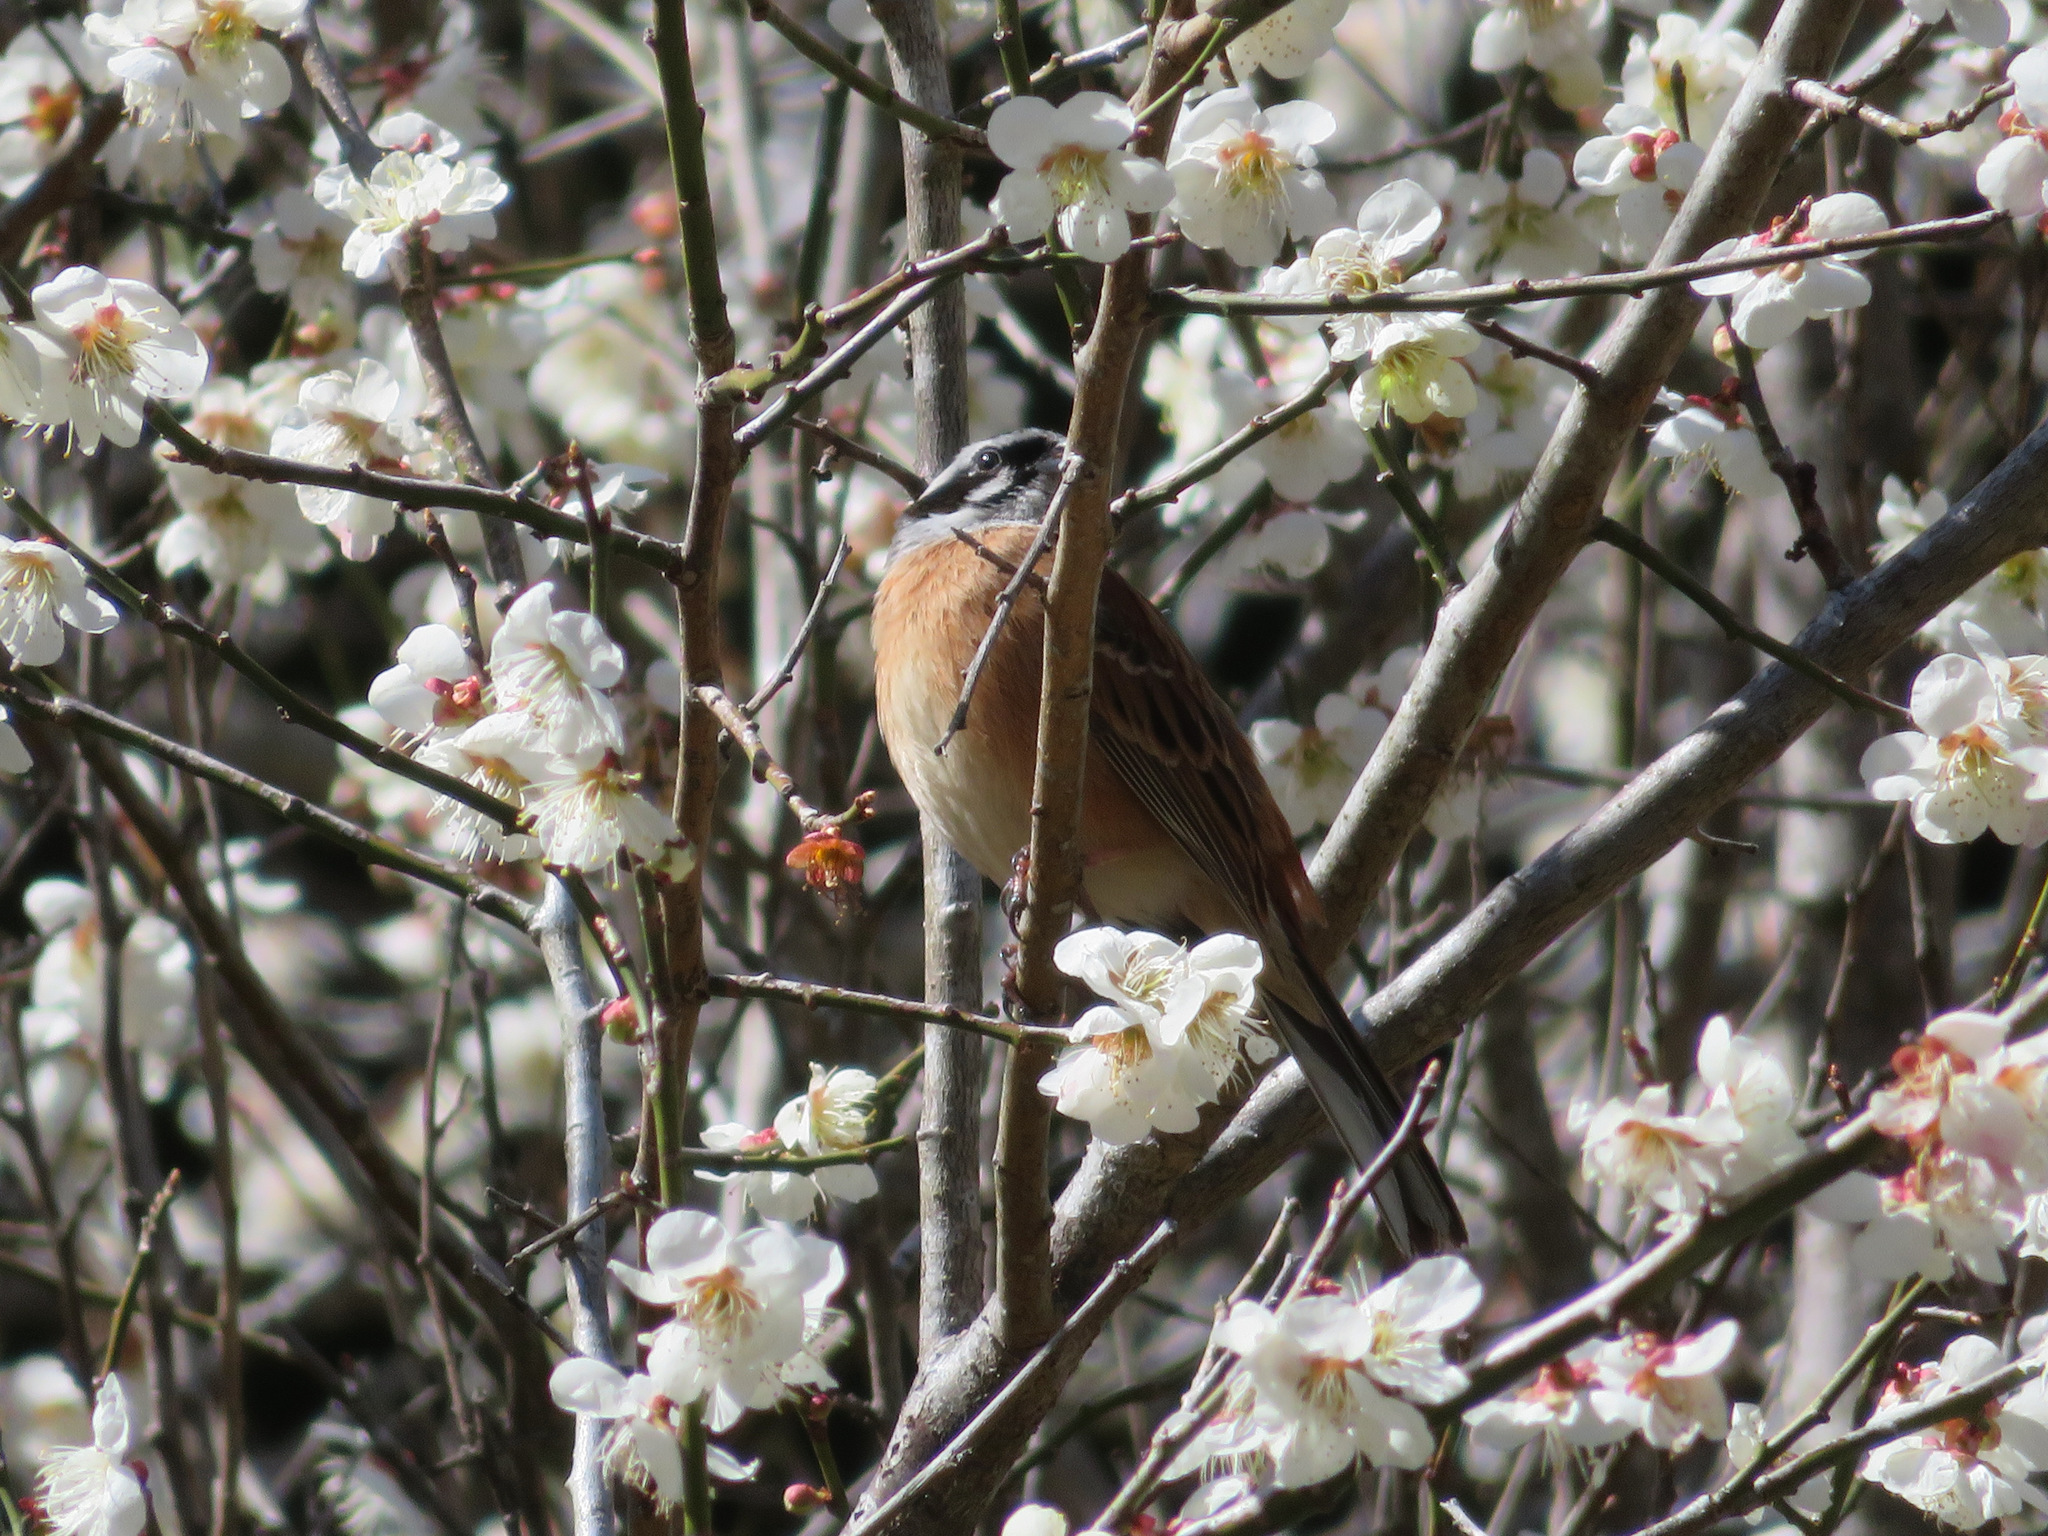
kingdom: Animalia
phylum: Chordata
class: Aves
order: Passeriformes
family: Emberizidae
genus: Emberiza
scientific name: Emberiza cioides
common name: Meadow bunting
